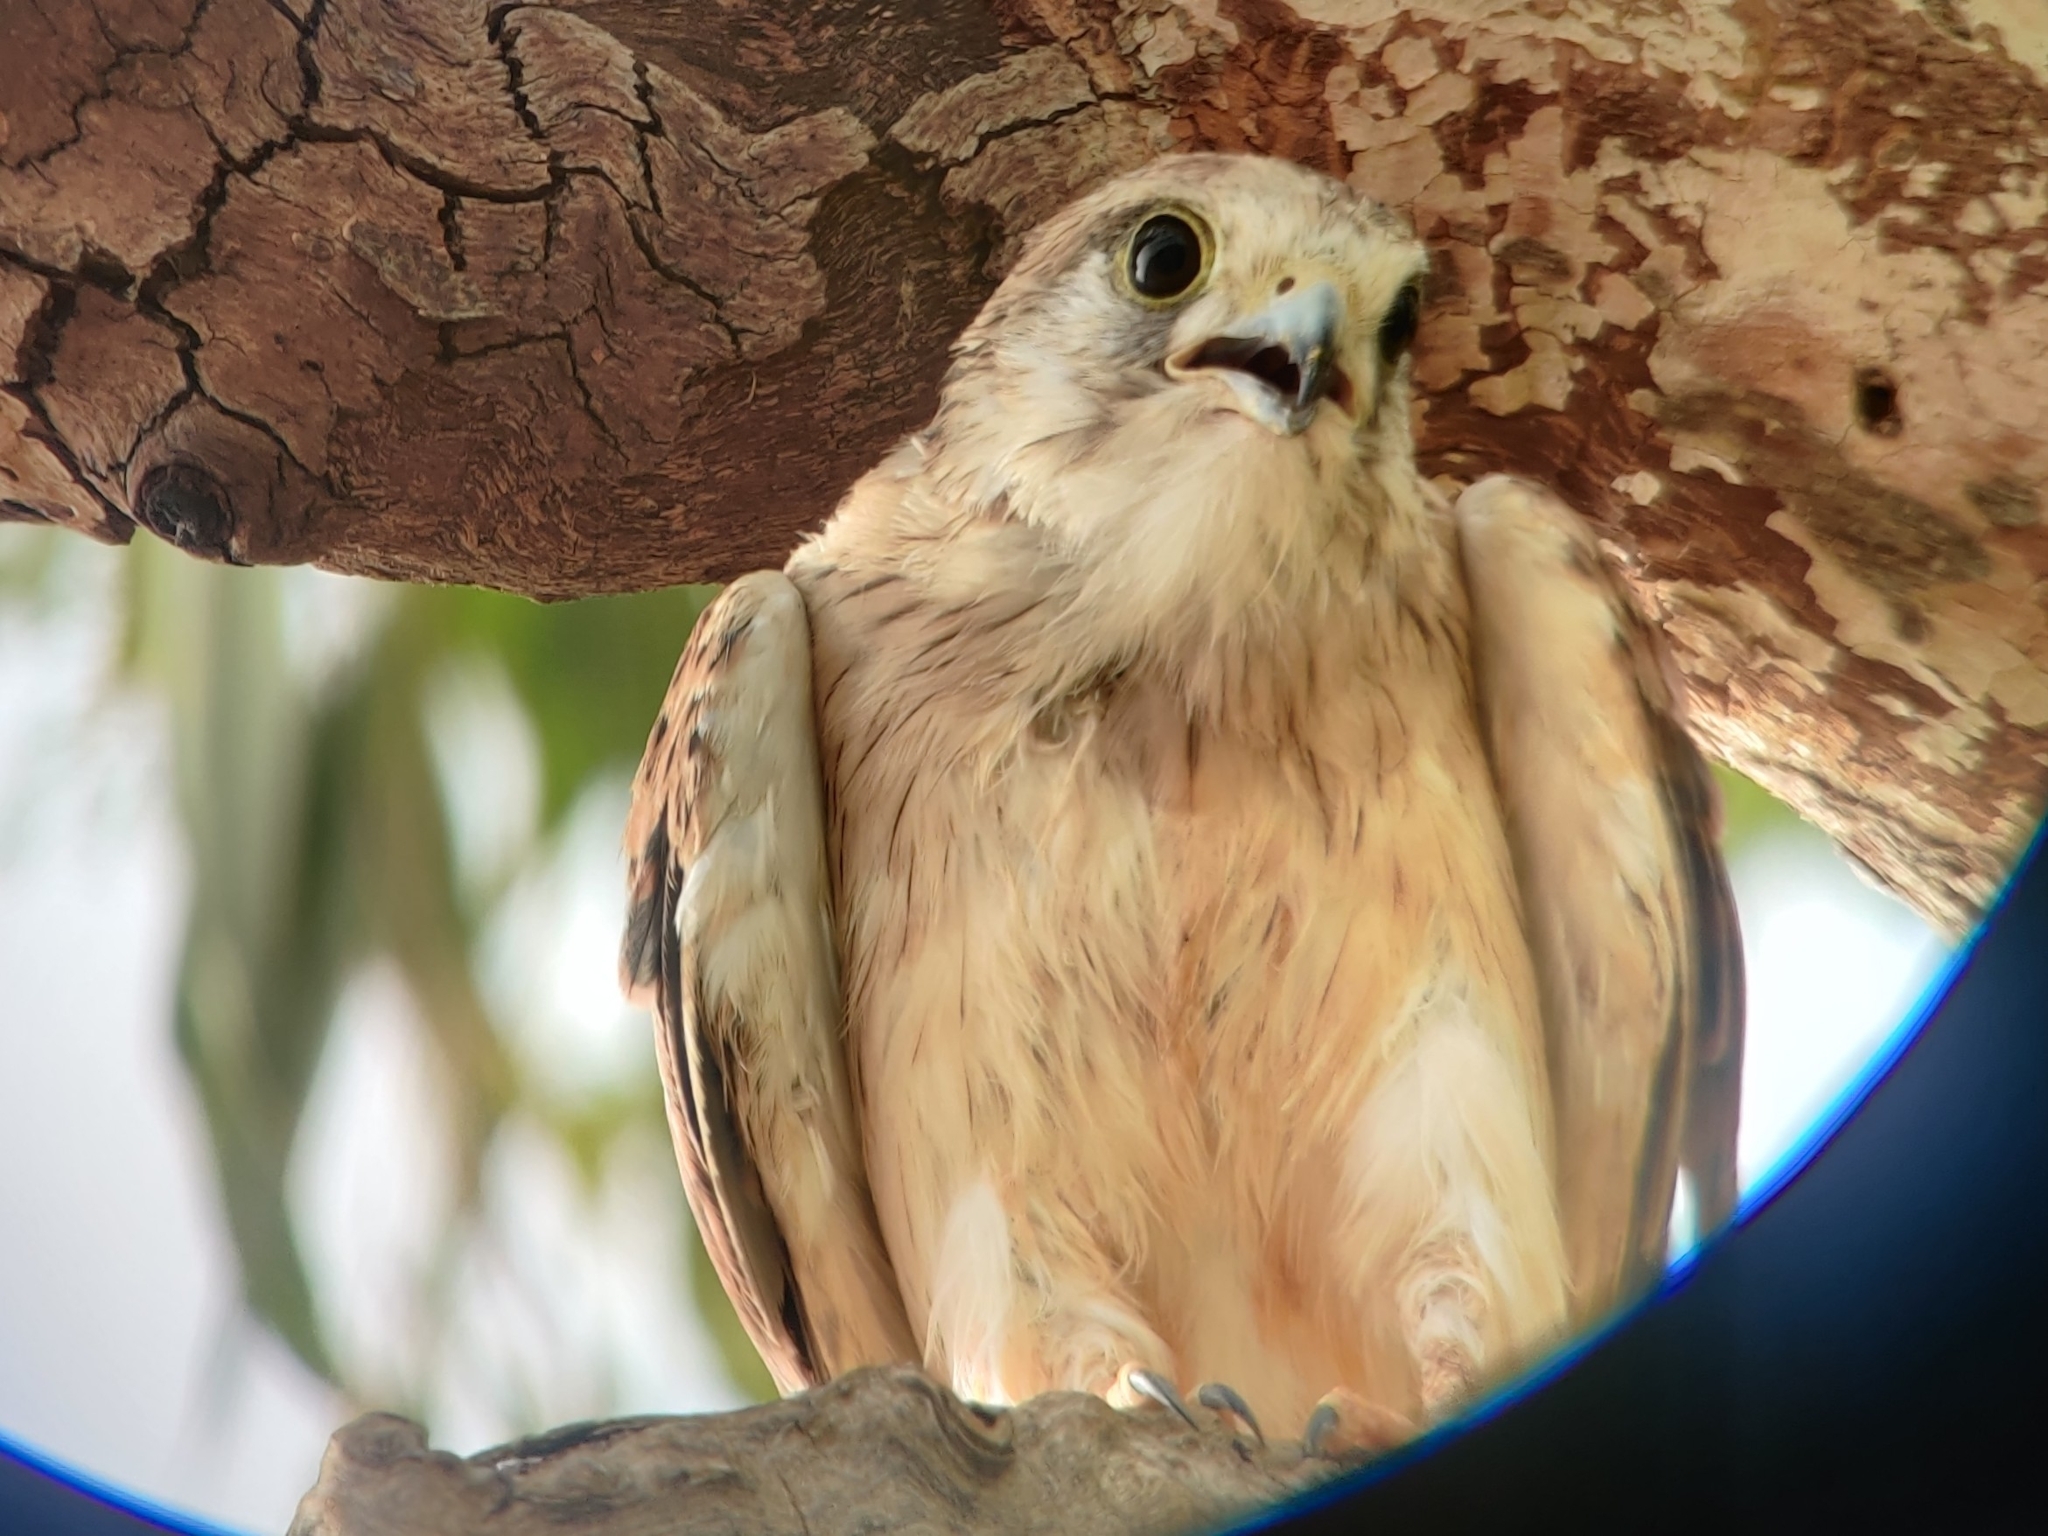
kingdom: Animalia
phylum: Chordata
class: Aves
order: Falconiformes
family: Falconidae
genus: Falco
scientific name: Falco cenchroides
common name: Nankeen kestrel
